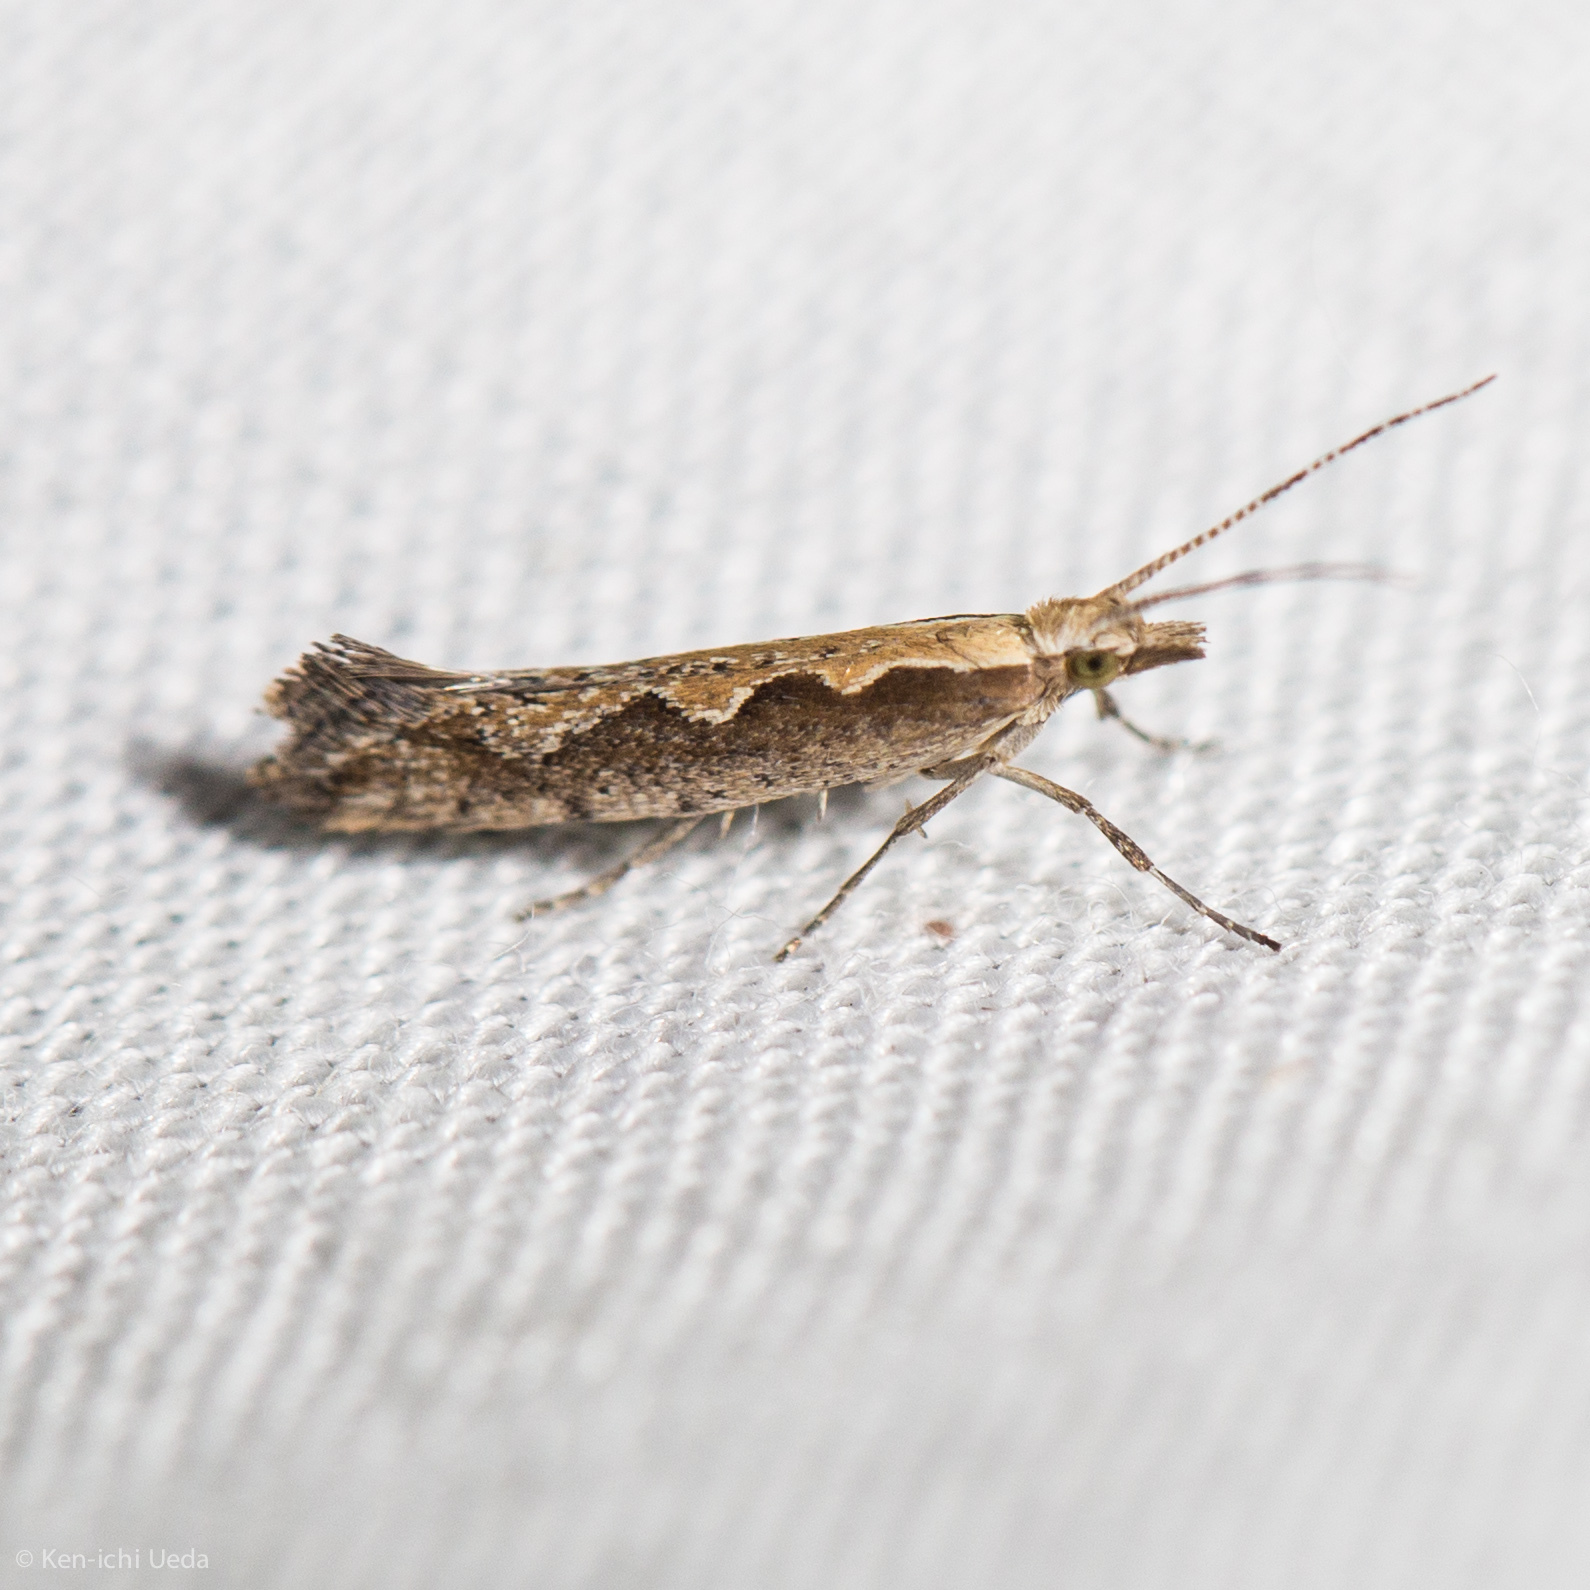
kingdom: Animalia
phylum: Arthropoda
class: Insecta
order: Lepidoptera
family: Plutellidae
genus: Plutella
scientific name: Plutella
